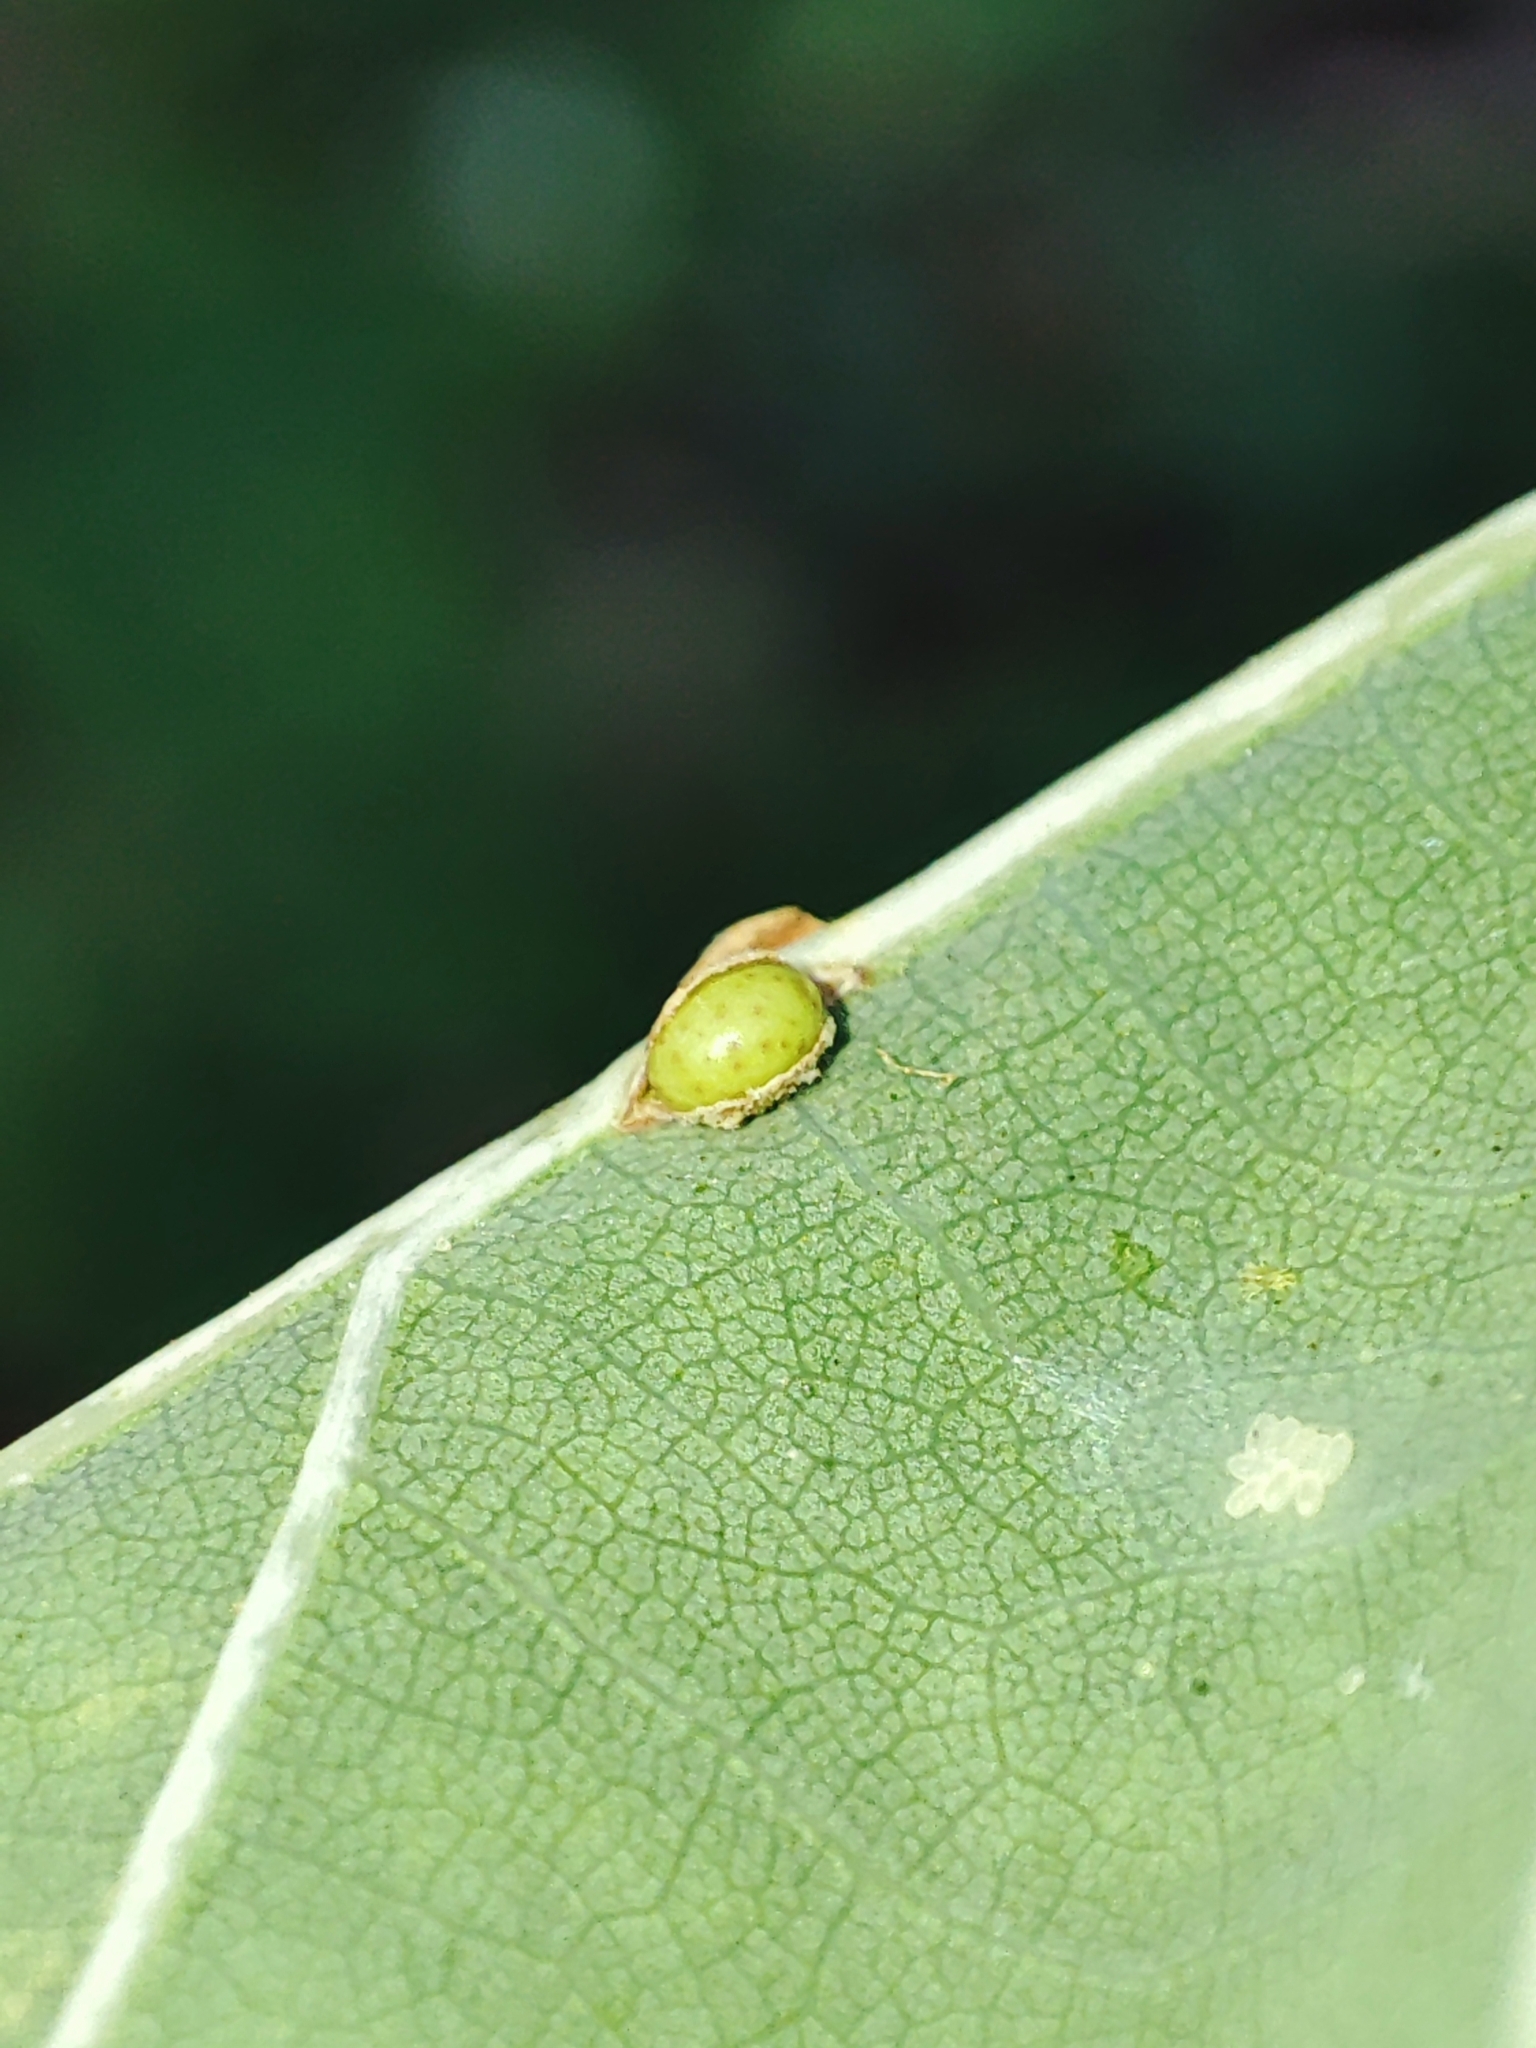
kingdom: Animalia
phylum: Arthropoda
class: Insecta
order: Hymenoptera
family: Cynipidae
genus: Neuroterus
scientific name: Neuroterus anthracinus
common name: Oyster gall
